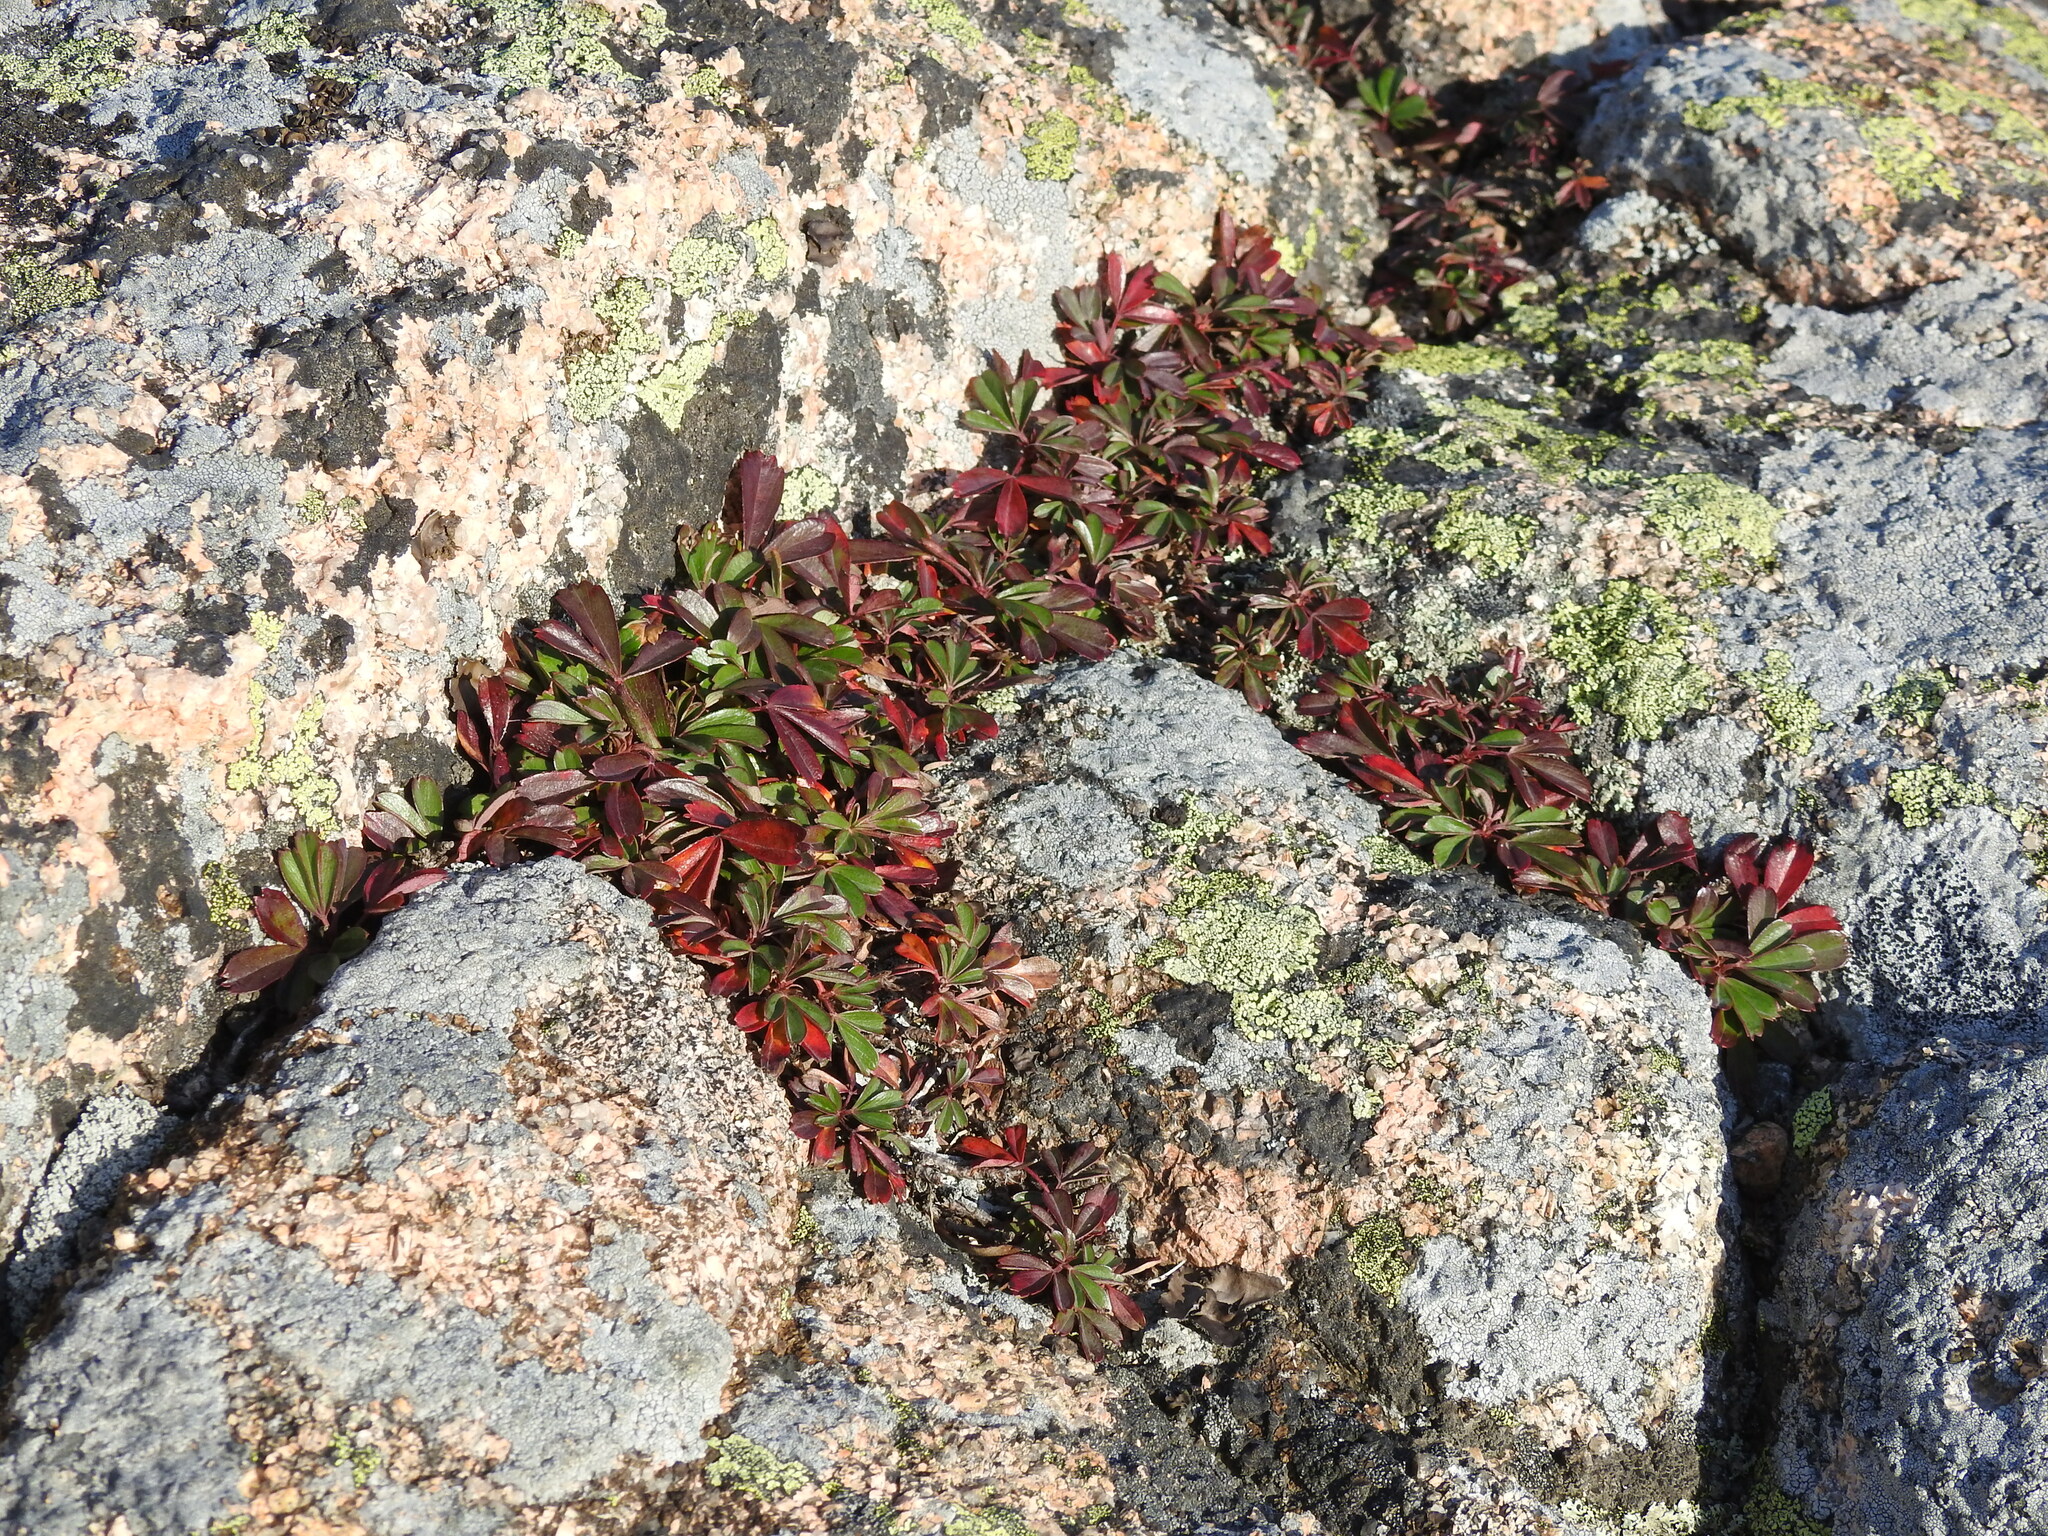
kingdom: Plantae
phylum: Tracheophyta
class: Magnoliopsida
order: Rosales
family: Rosaceae
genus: Sibbaldia
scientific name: Sibbaldia tridentata
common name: Three-toothed cinquefoil
